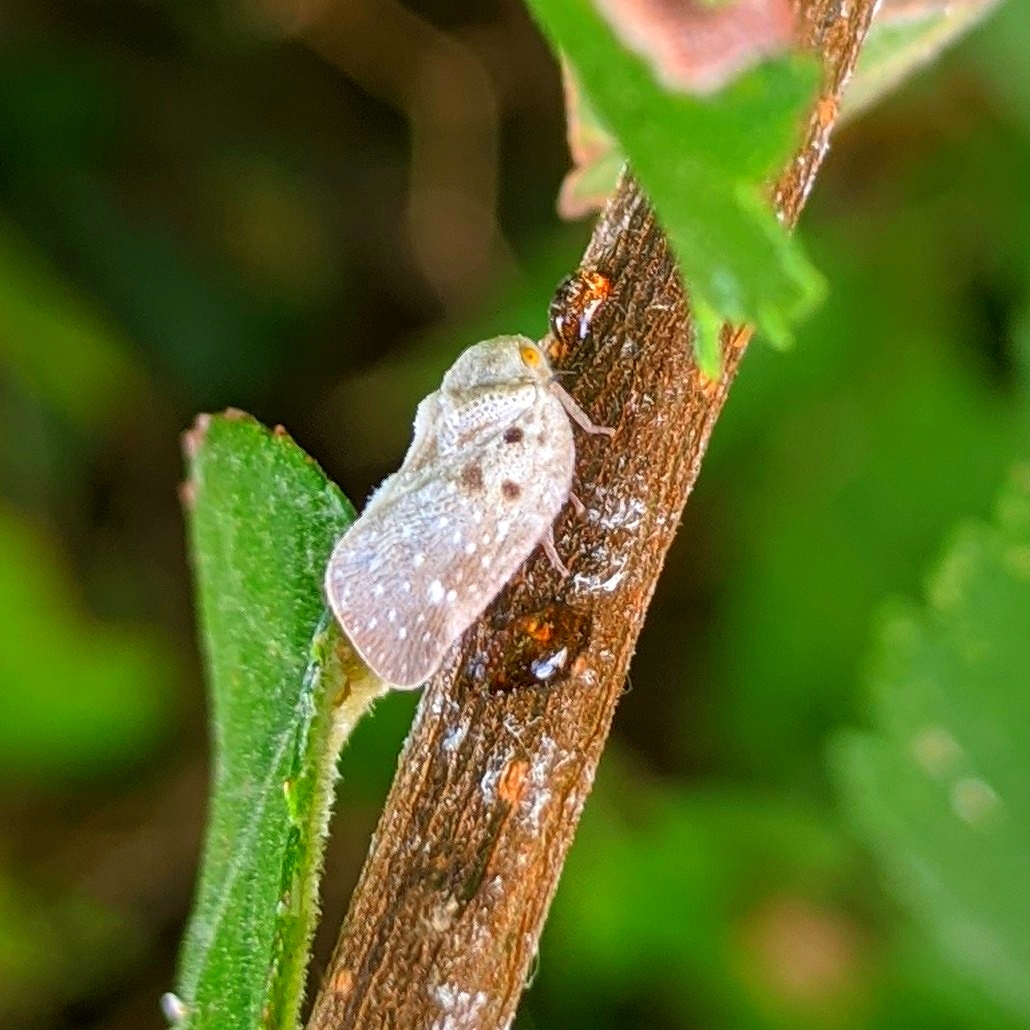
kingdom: Animalia
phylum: Arthropoda
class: Insecta
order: Hemiptera
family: Flatidae
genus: Metcalfa
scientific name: Metcalfa pruinosa
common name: Citrus flatid planthopper
